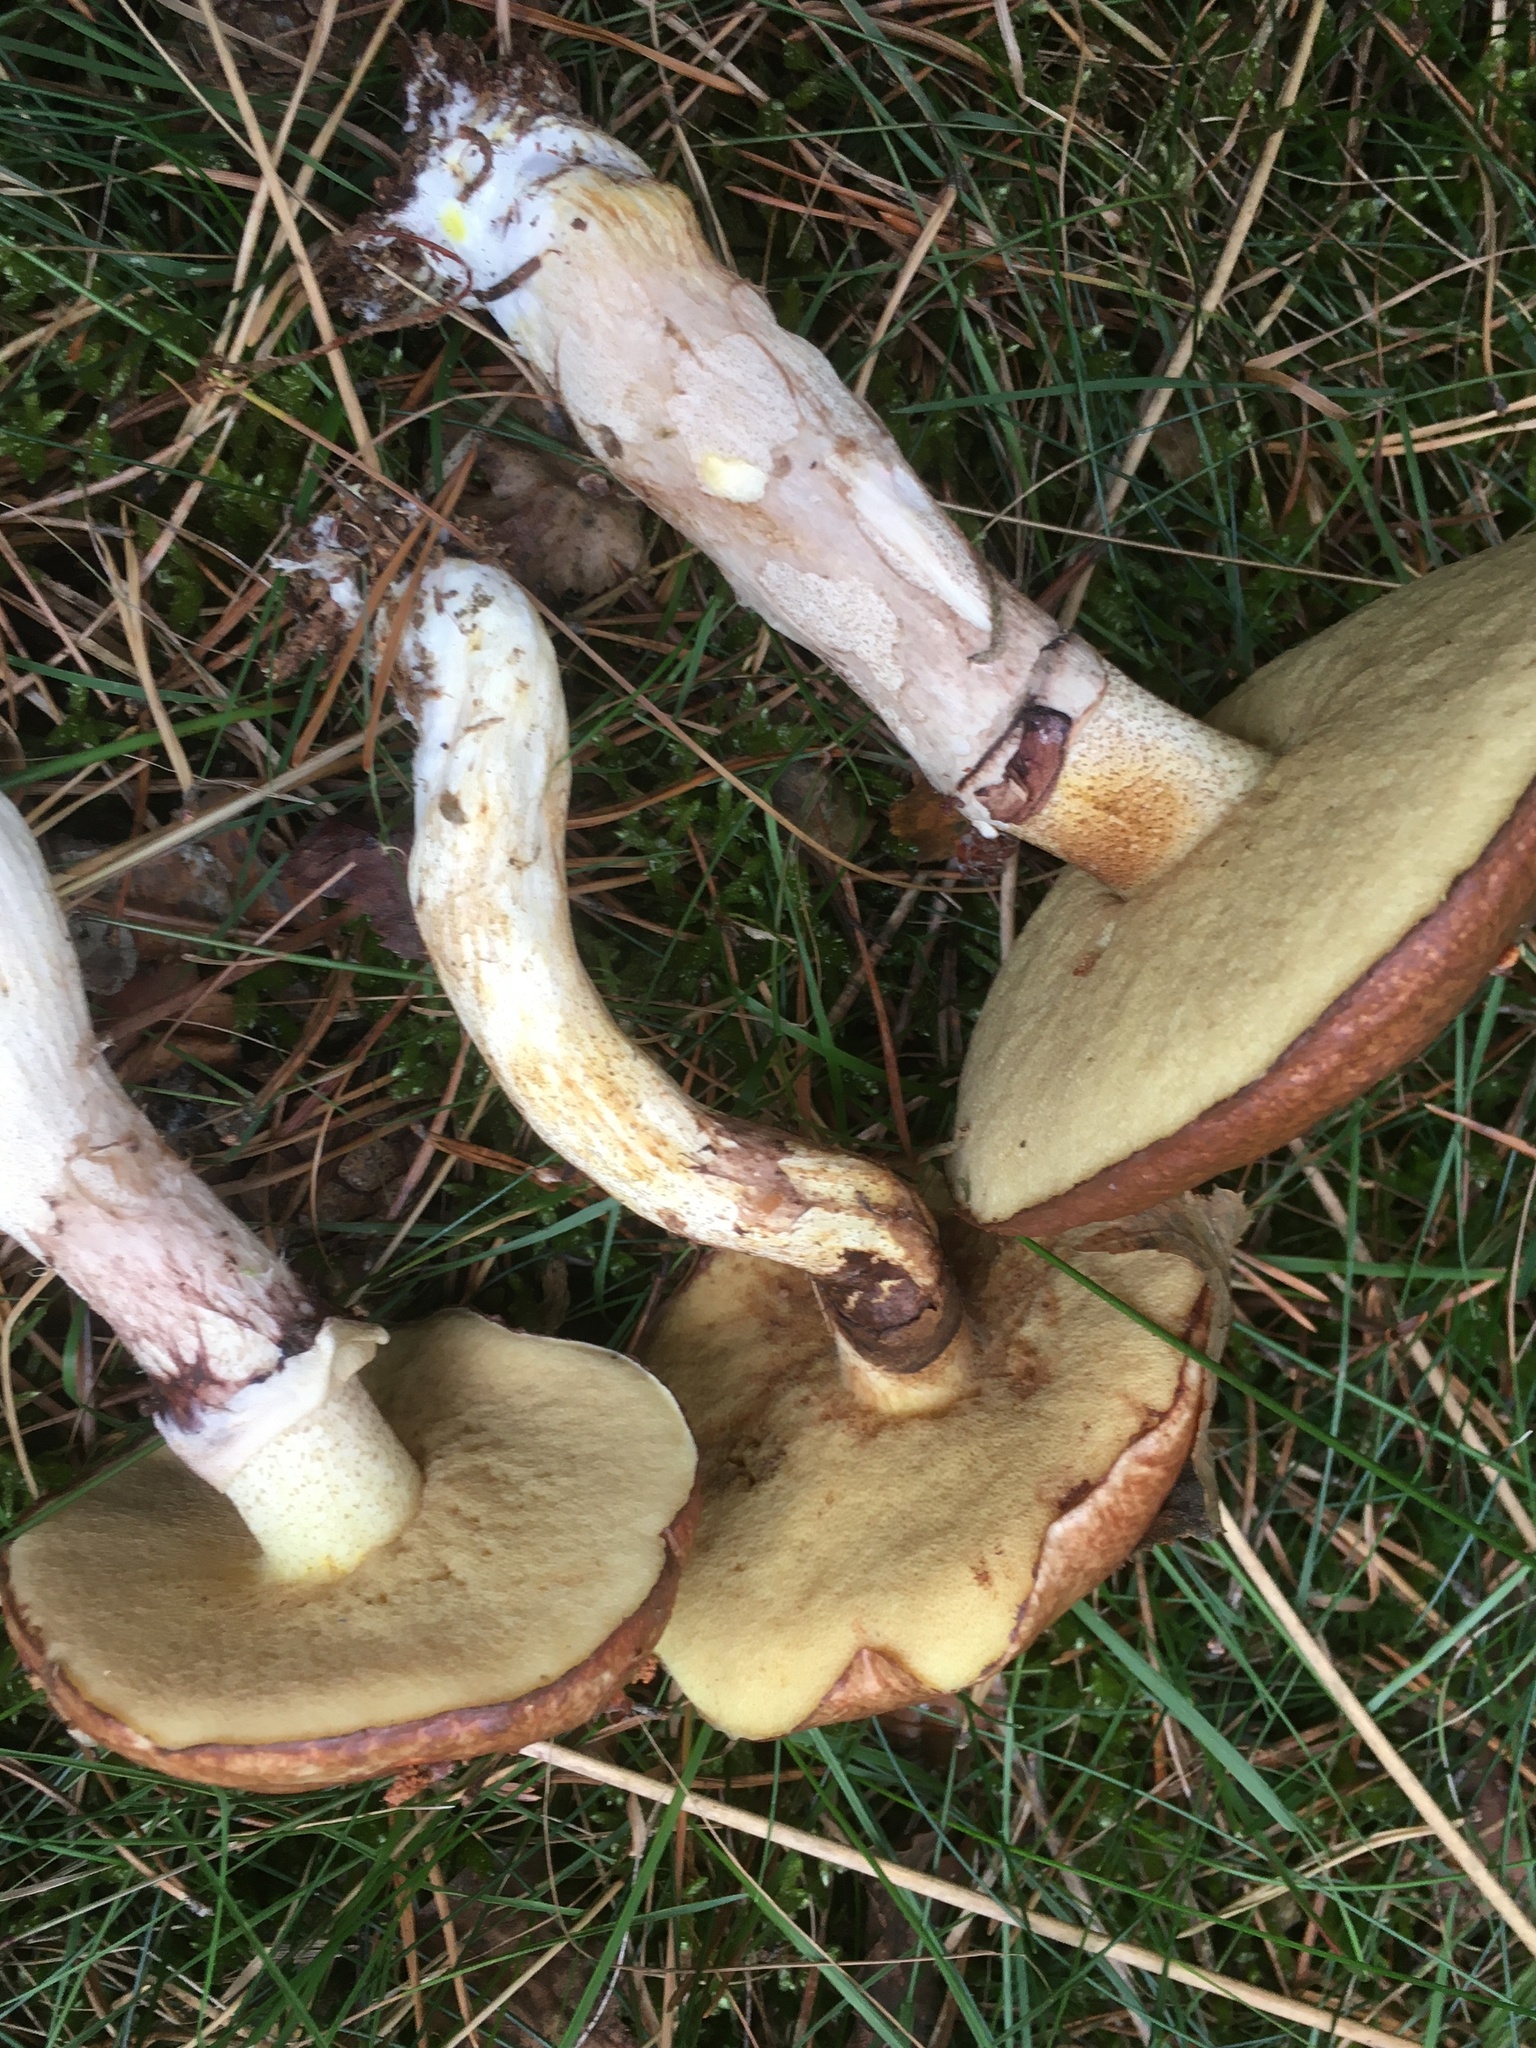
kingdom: Fungi
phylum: Basidiomycota
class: Agaricomycetes
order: Boletales
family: Suillaceae
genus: Suillus
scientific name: Suillus luteus
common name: Slippery jack
